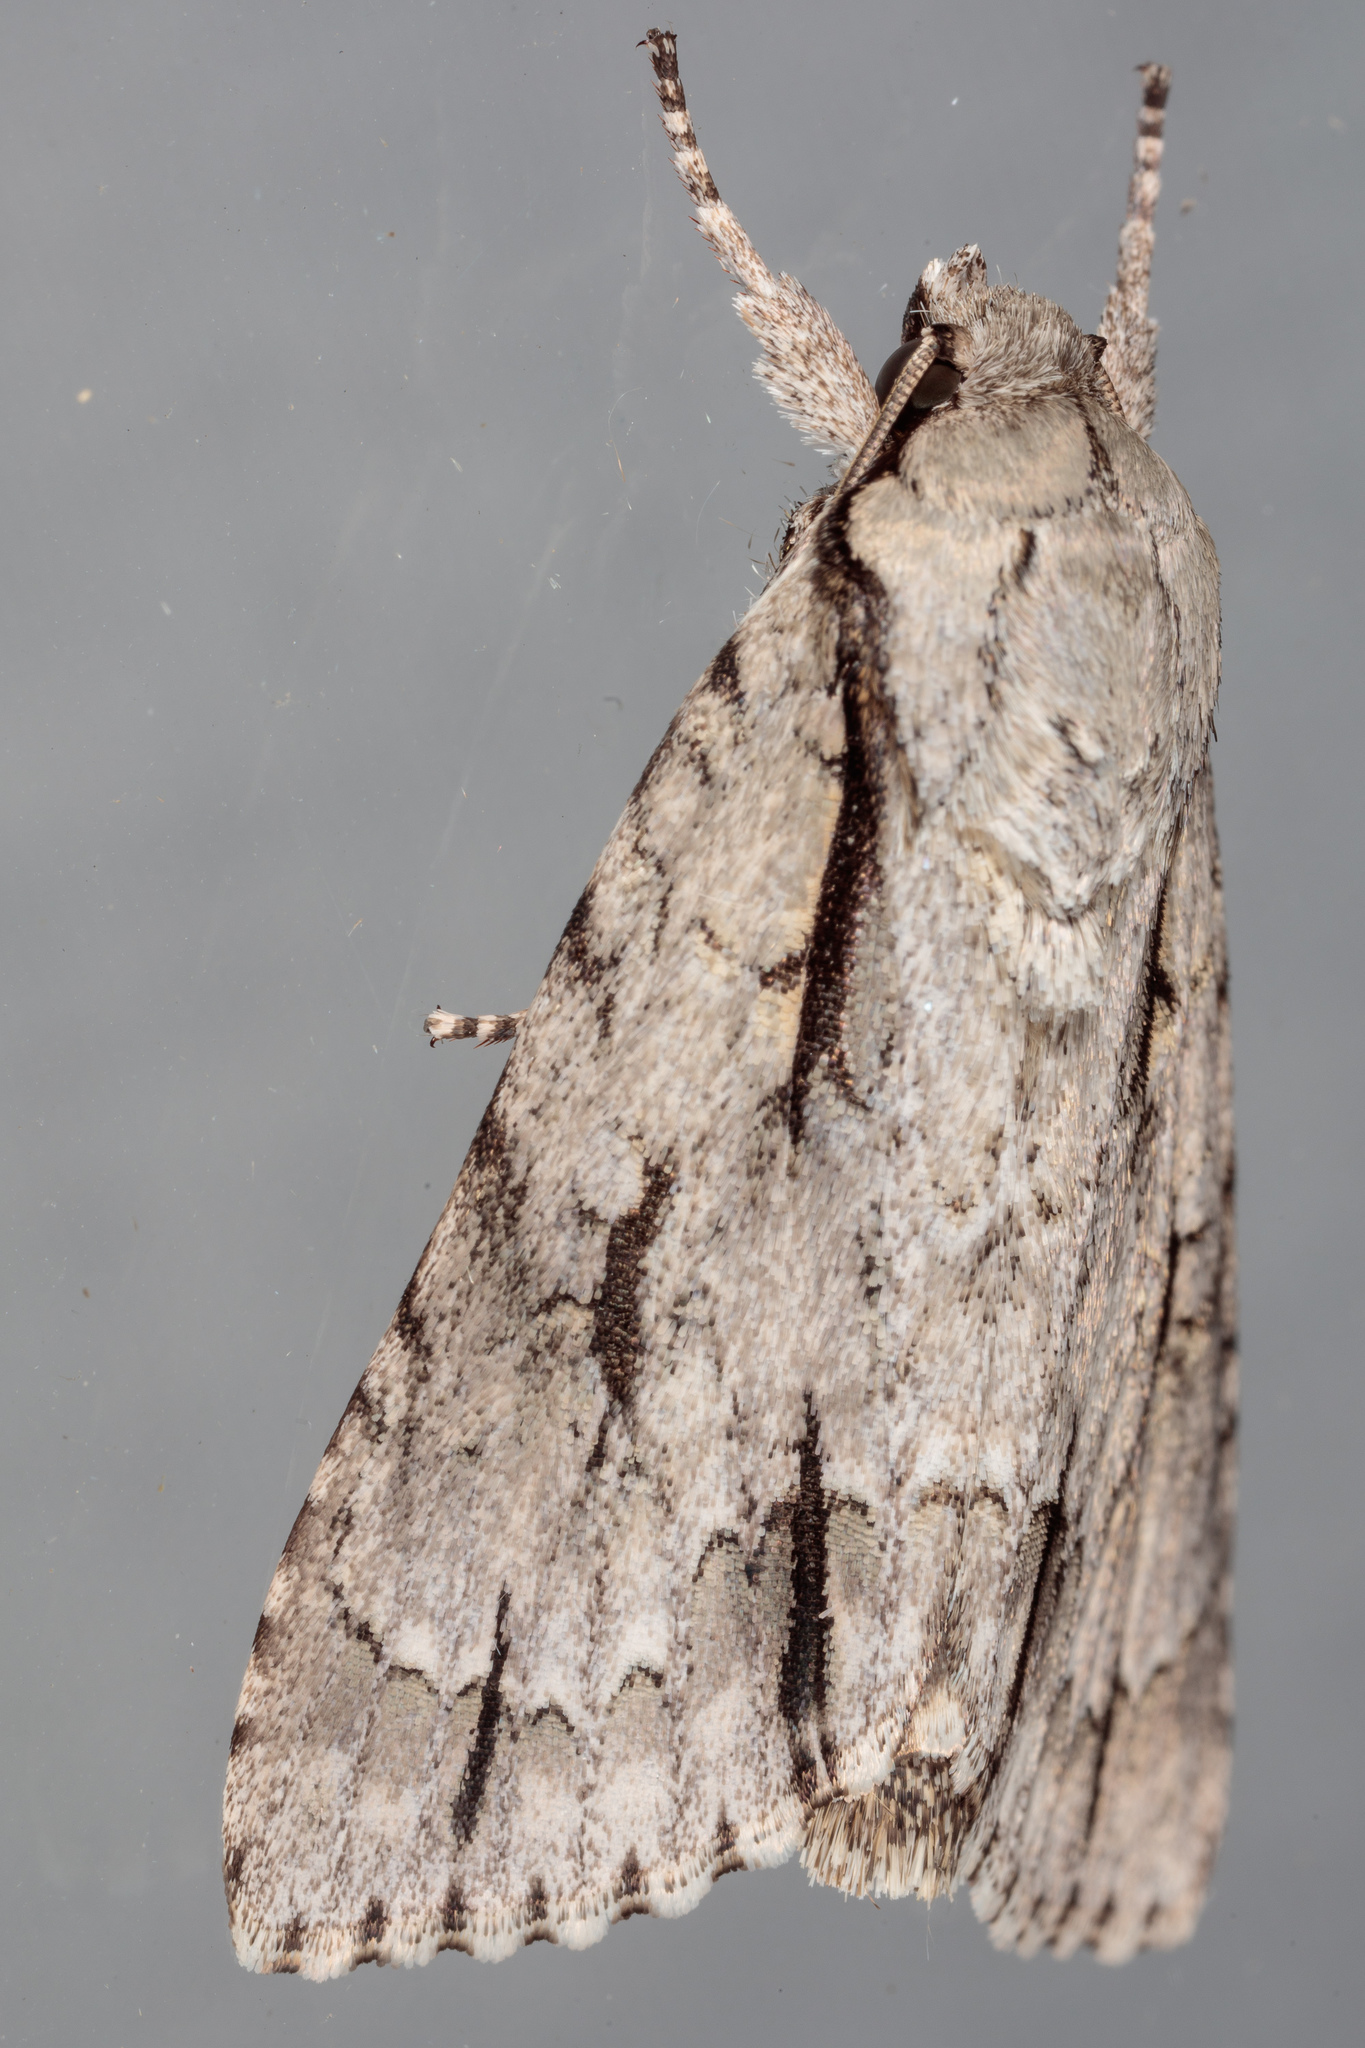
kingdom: Animalia
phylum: Arthropoda
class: Insecta
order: Lepidoptera
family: Noctuidae
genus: Acronicta
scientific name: Acronicta
